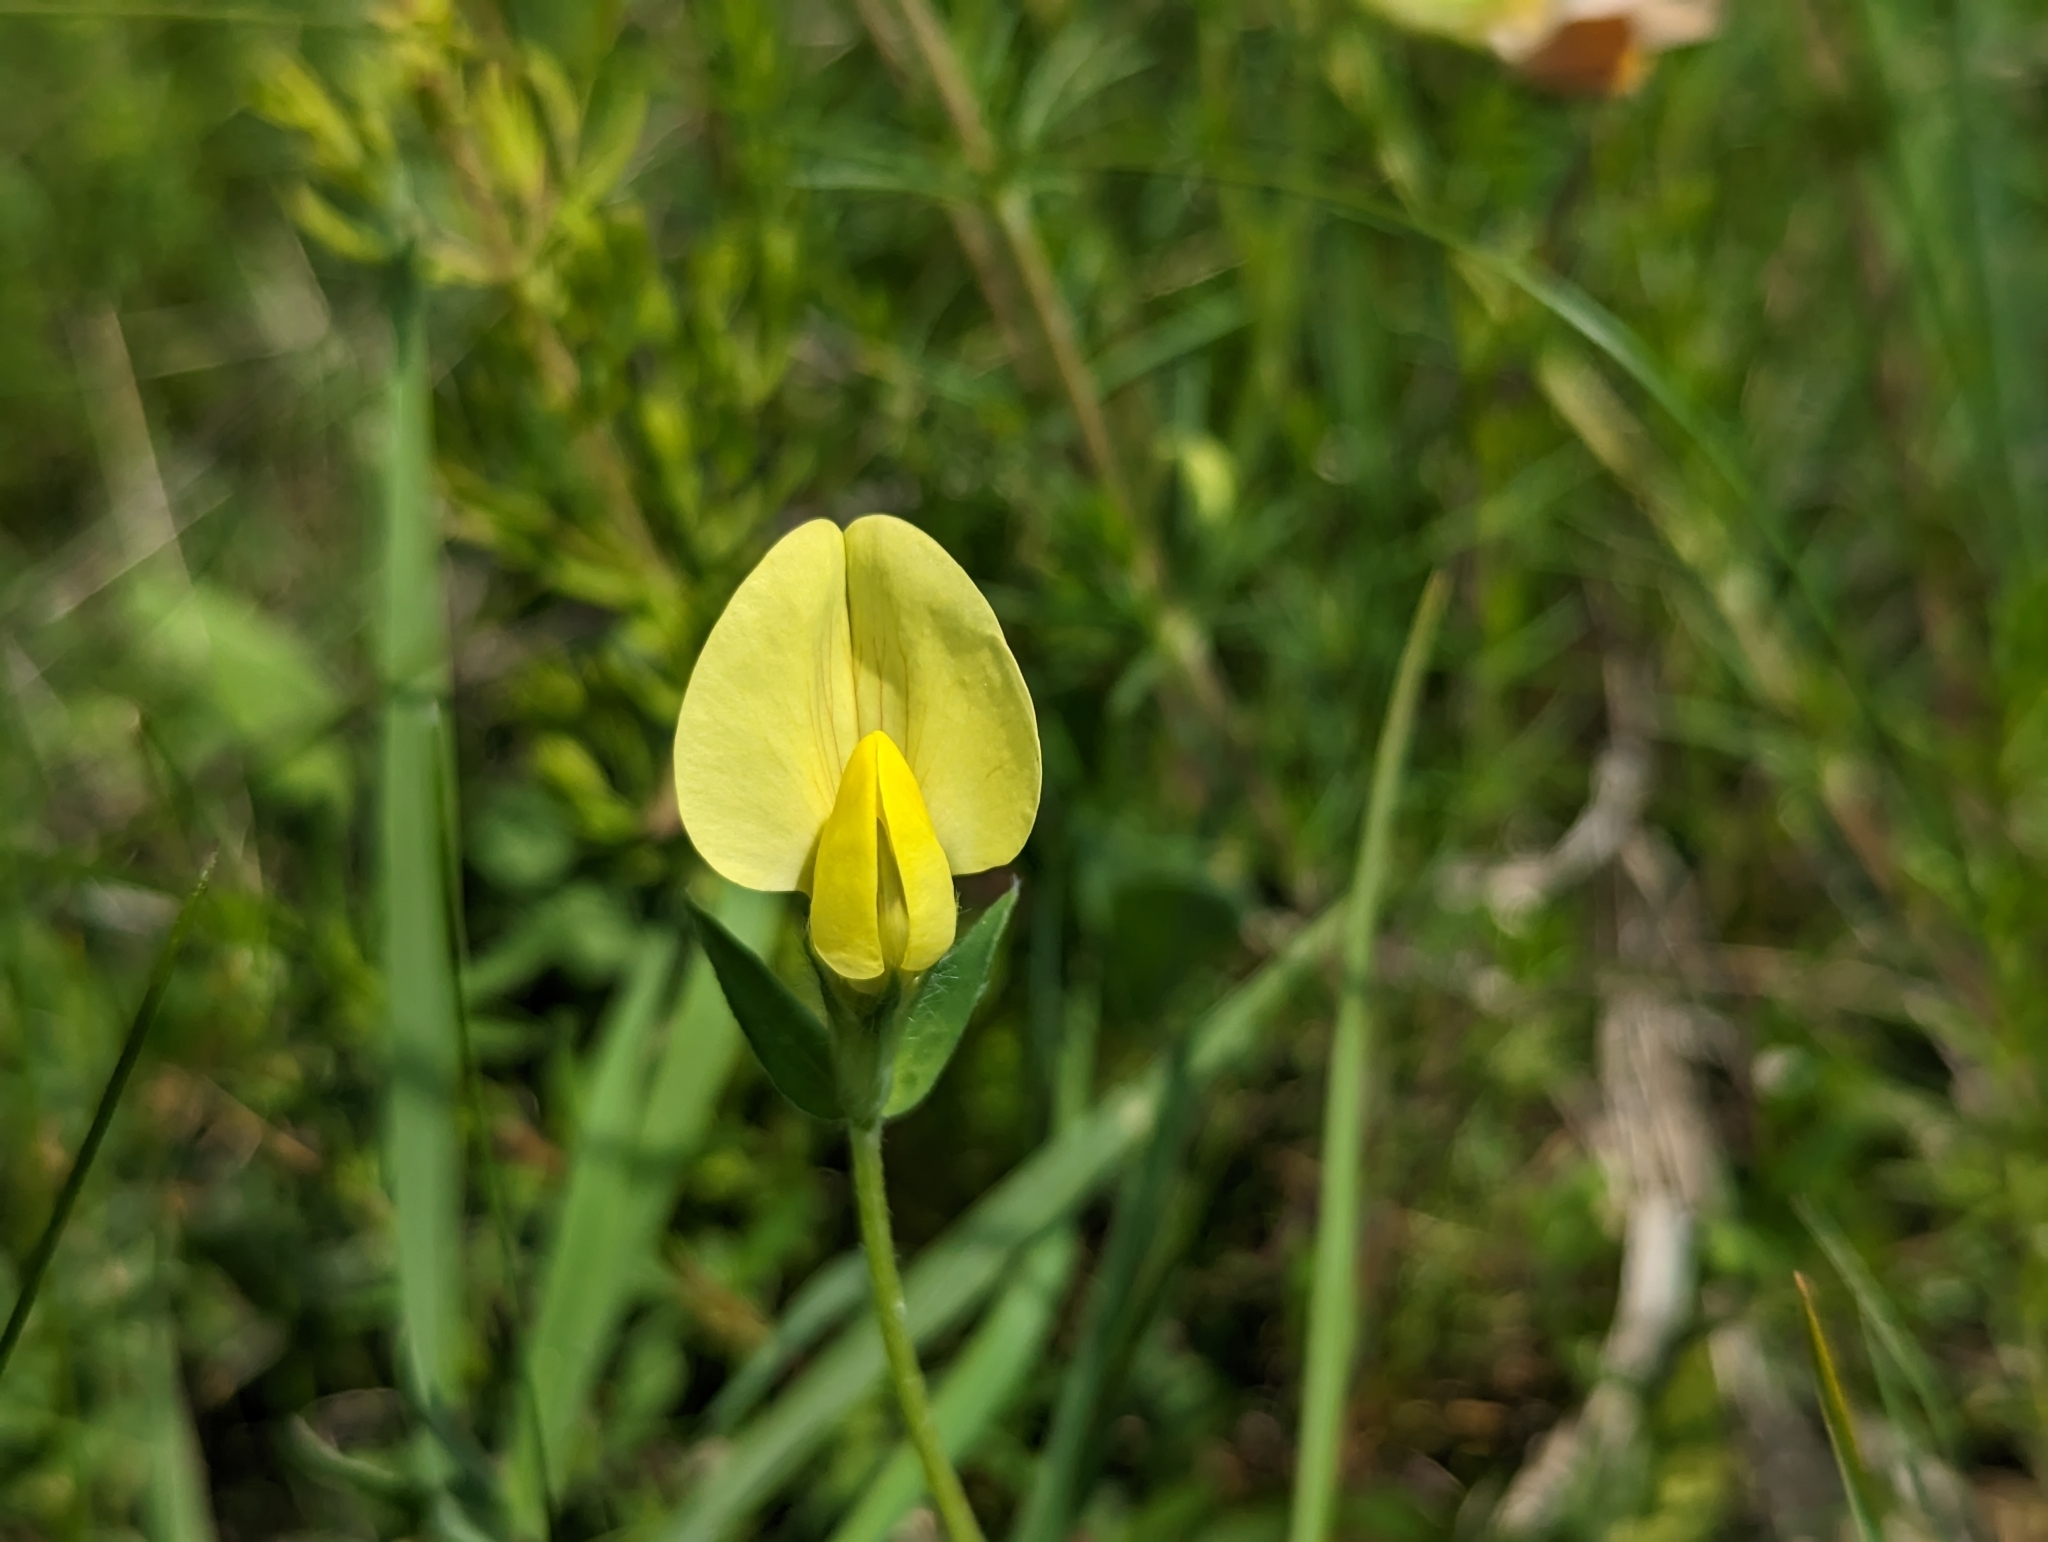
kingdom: Plantae
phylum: Tracheophyta
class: Magnoliopsida
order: Fabales
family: Fabaceae
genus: Lotus
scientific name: Lotus maritimus
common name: Dragon's-teeth
